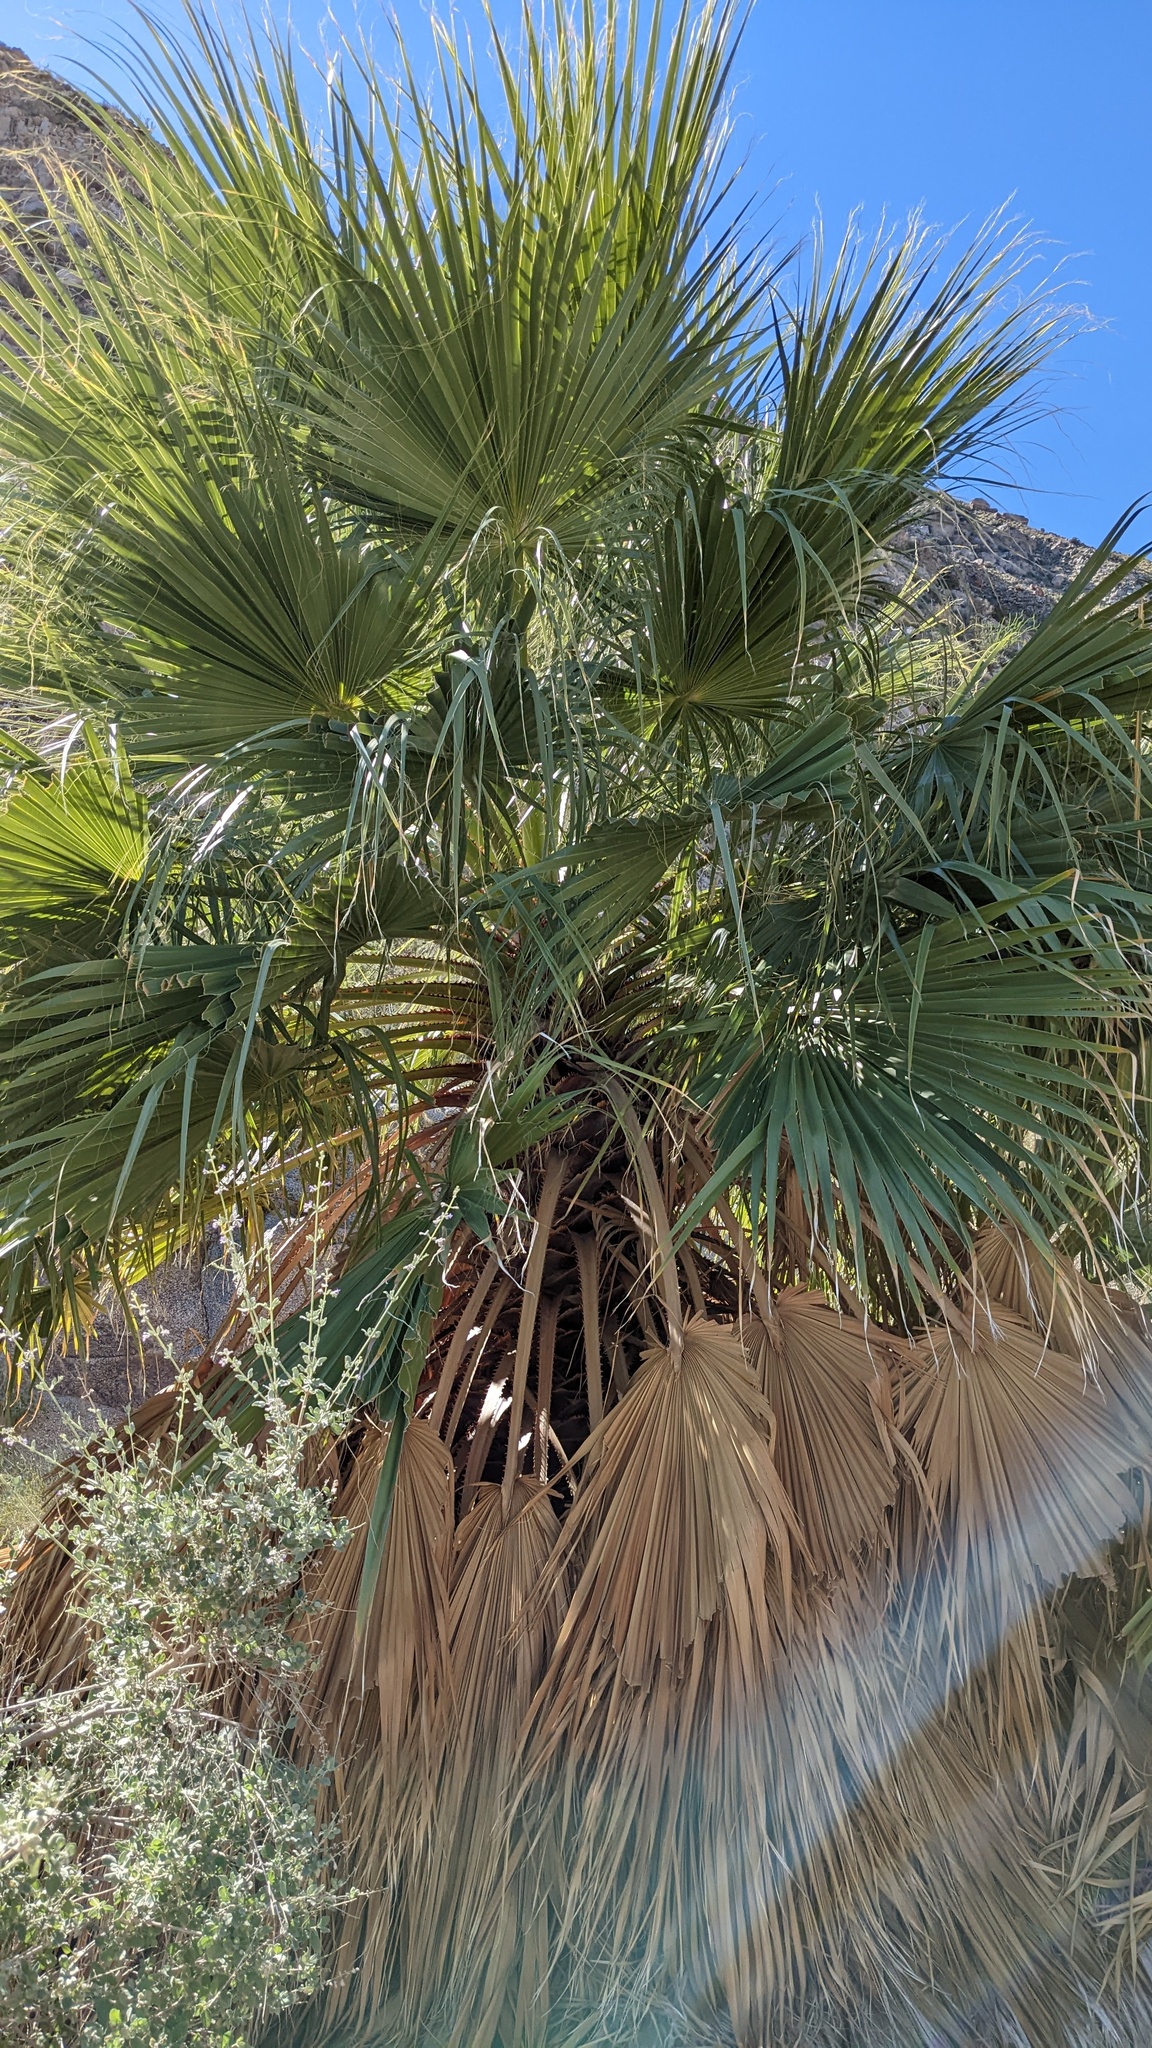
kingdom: Plantae
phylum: Tracheophyta
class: Liliopsida
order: Arecales
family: Arecaceae
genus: Washingtonia
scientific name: Washingtonia filifera
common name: California fan palm
